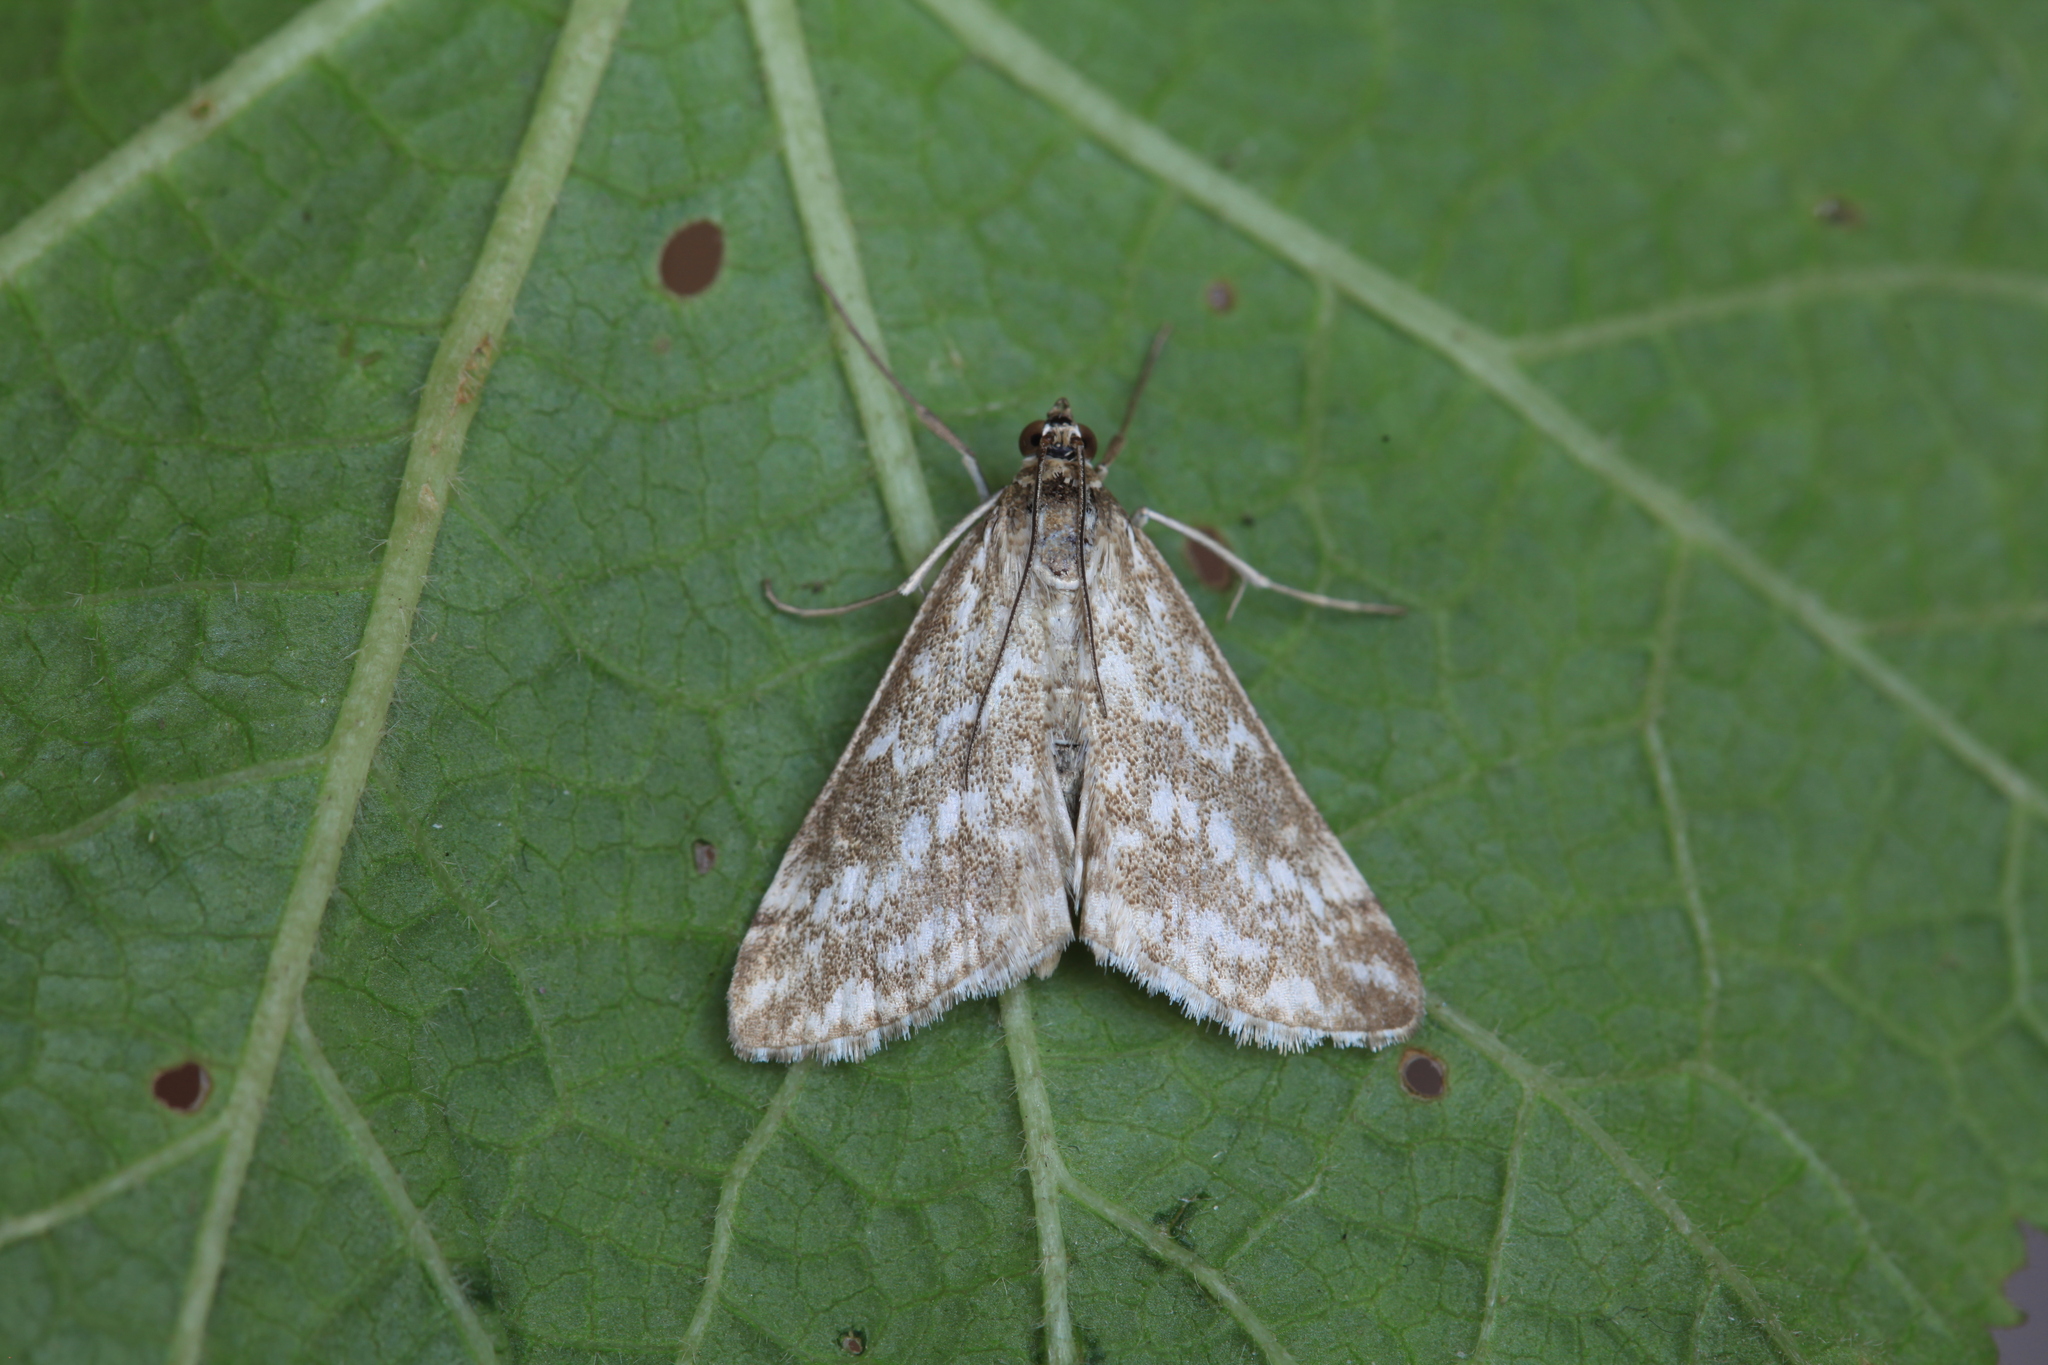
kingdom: Animalia
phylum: Arthropoda
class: Insecta
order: Lepidoptera
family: Crambidae
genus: Evergestis
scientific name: Evergestis frumentalis
